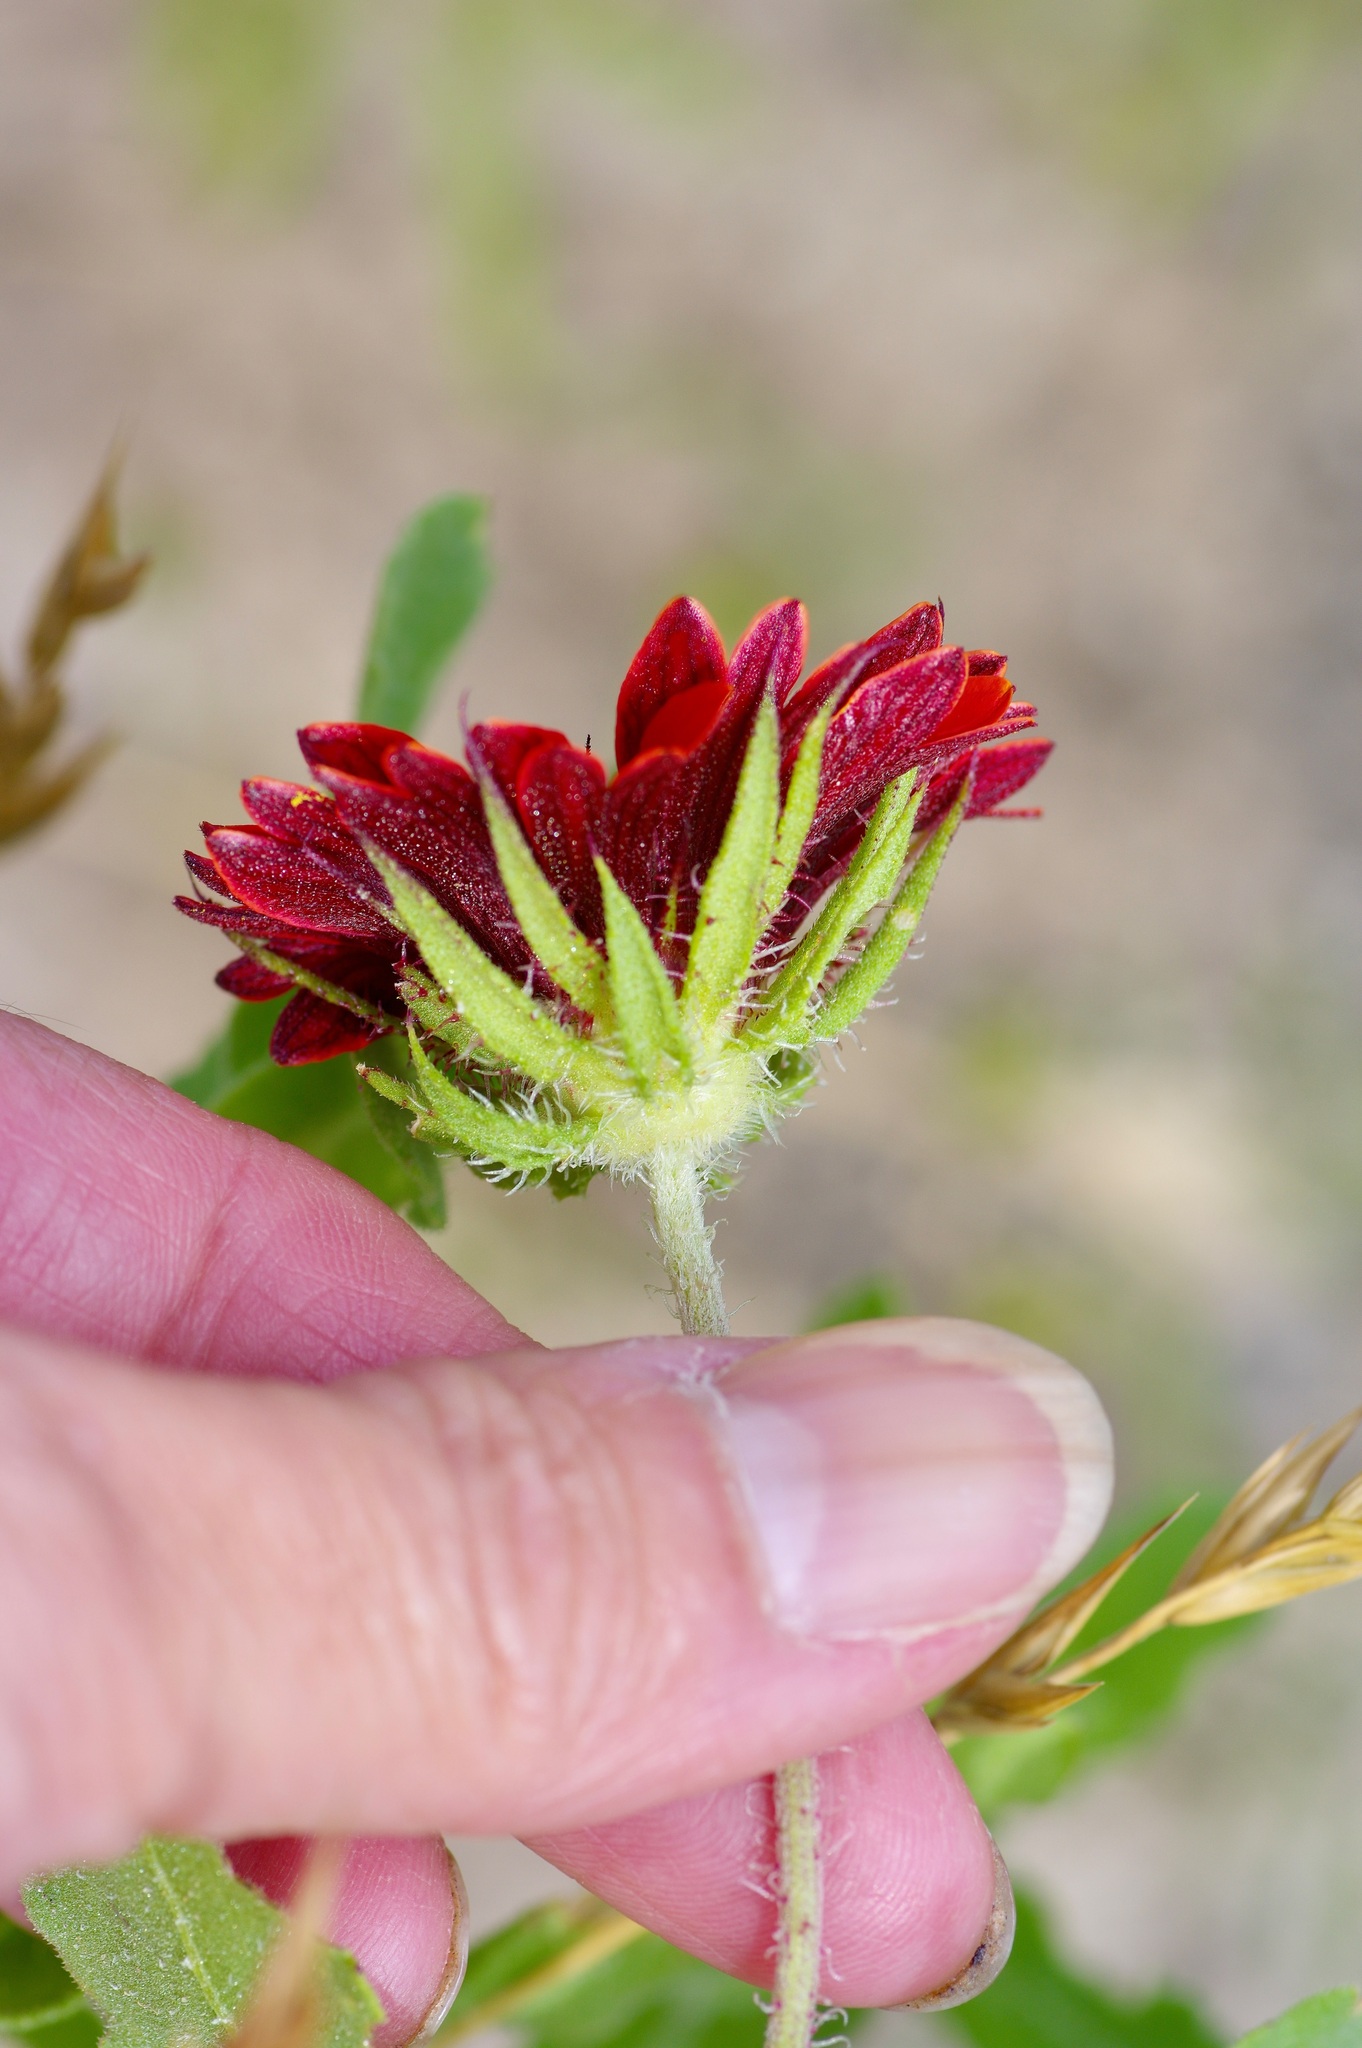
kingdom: Plantae
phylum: Tracheophyta
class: Magnoliopsida
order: Asterales
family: Asteraceae
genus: Gaillardia
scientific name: Gaillardia amblyodon
